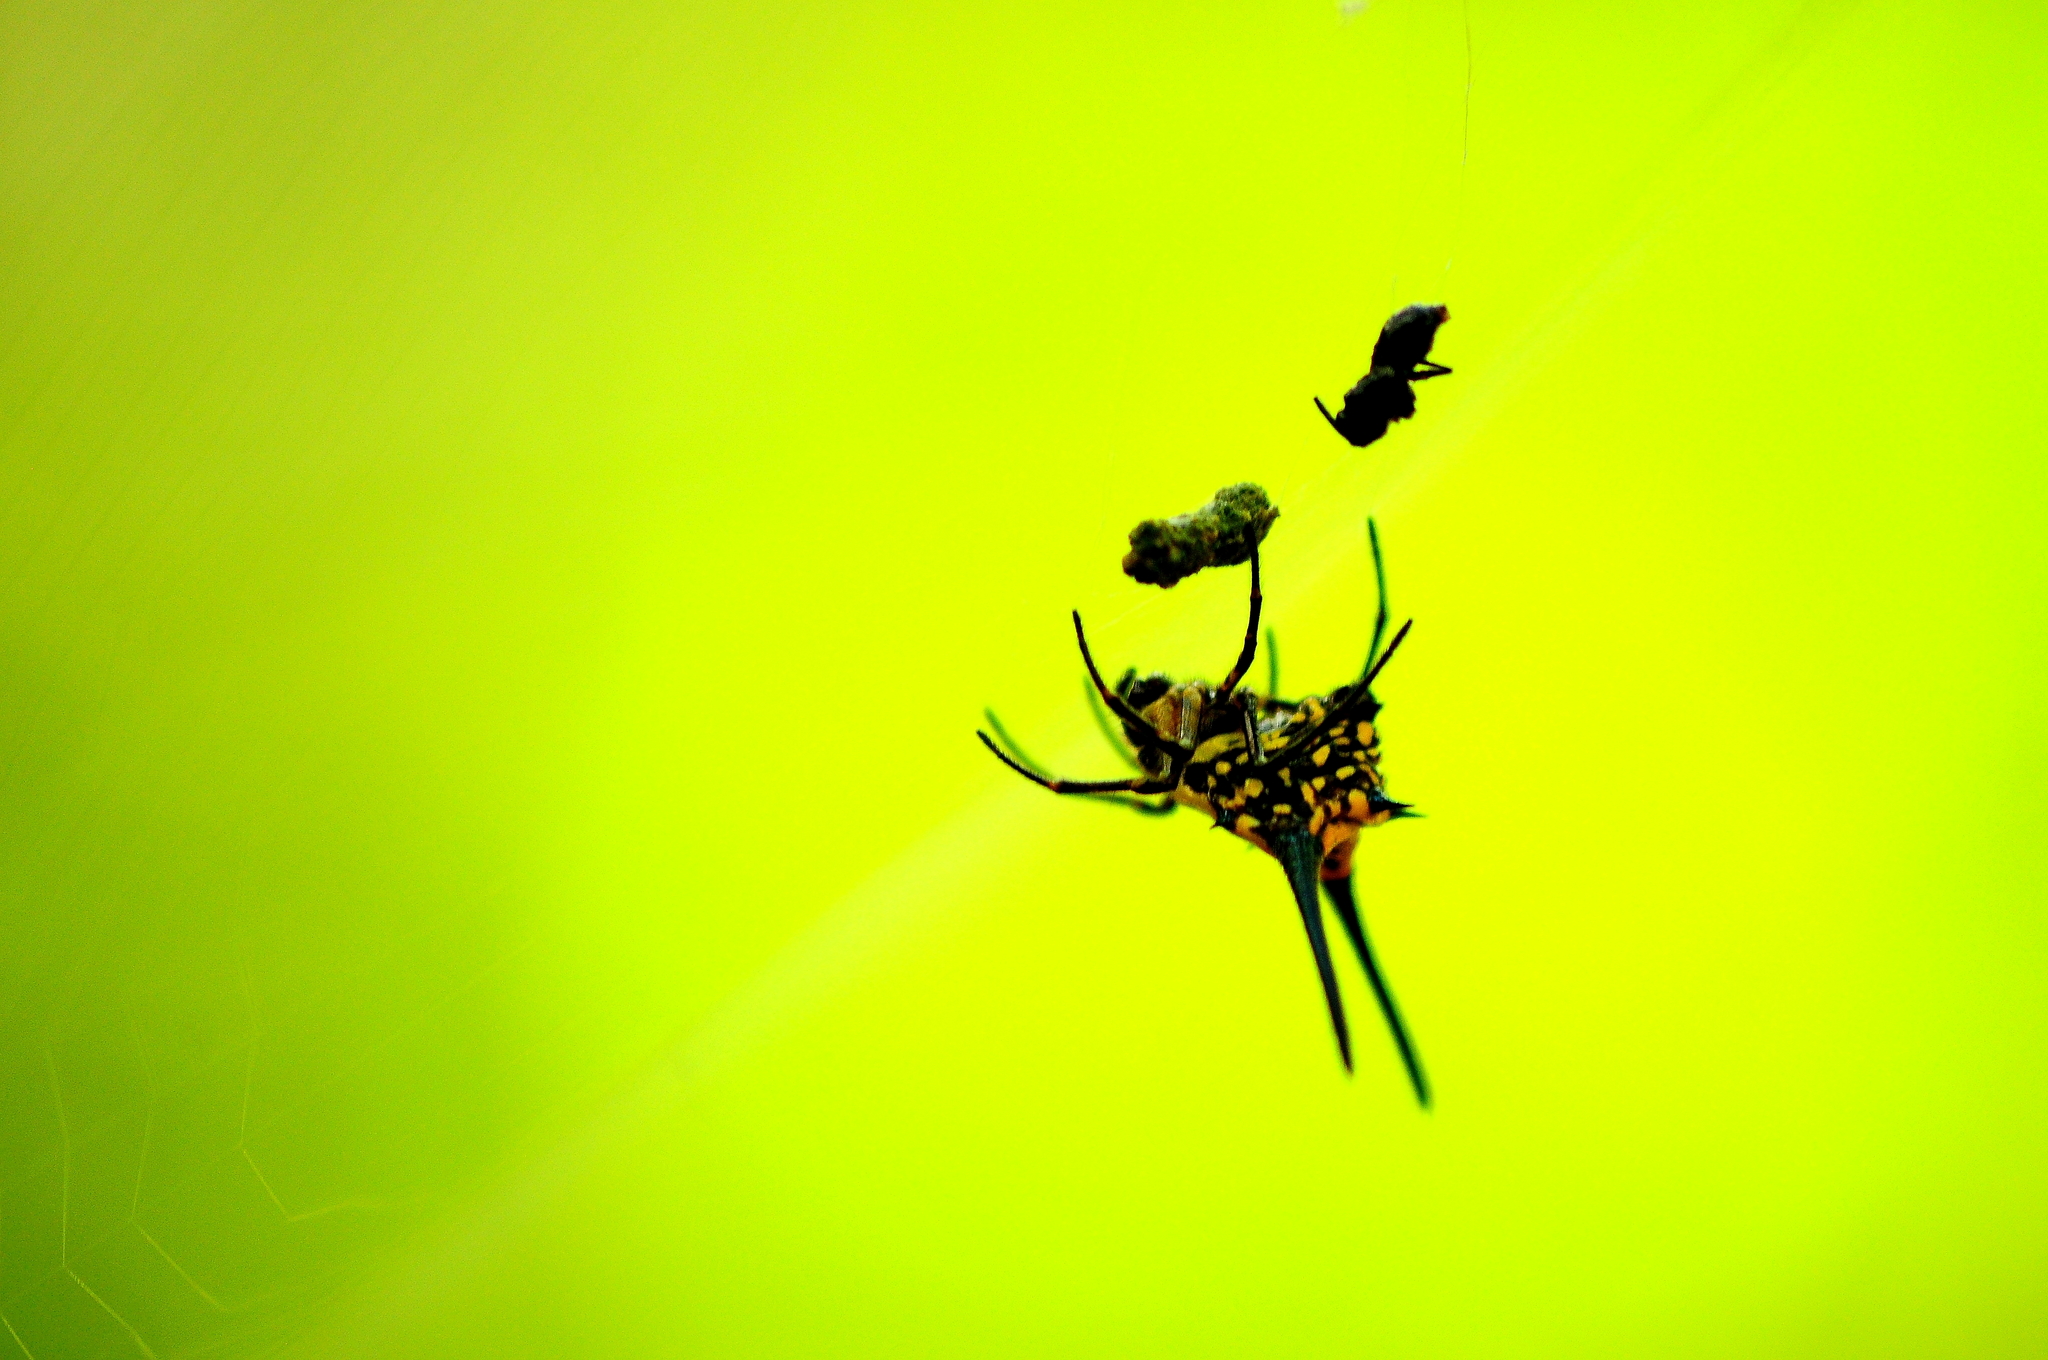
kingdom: Animalia
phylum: Arthropoda
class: Arachnida
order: Araneae
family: Araneidae
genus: Gasteracantha
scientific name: Gasteracantha dalyi
